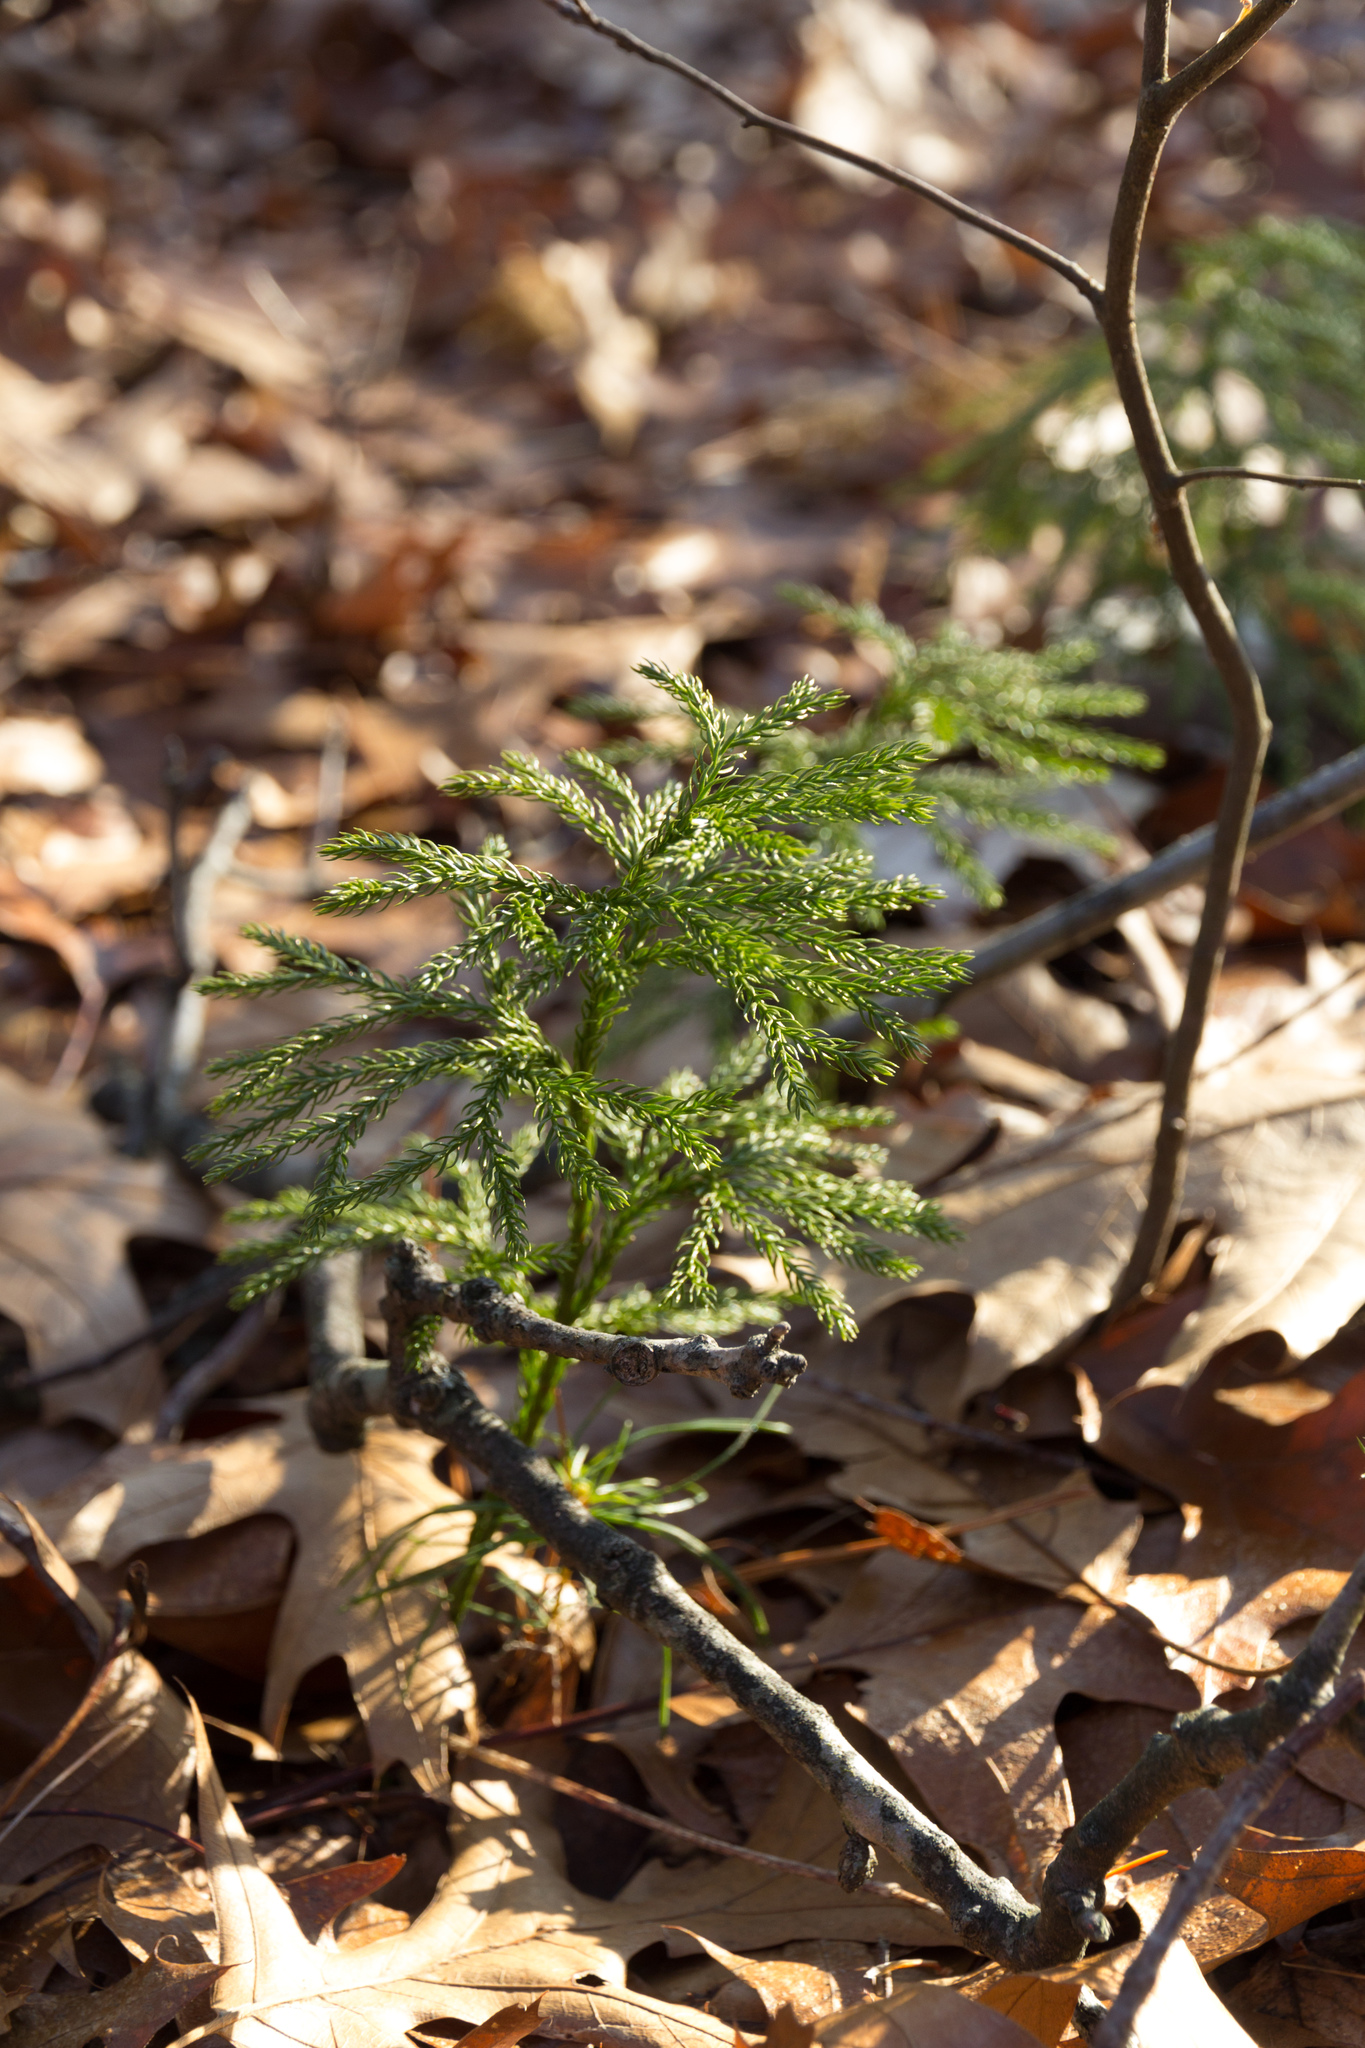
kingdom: Plantae
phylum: Tracheophyta
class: Lycopodiopsida
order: Lycopodiales
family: Lycopodiaceae
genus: Dendrolycopodium
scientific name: Dendrolycopodium obscurum
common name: Common ground-pine
